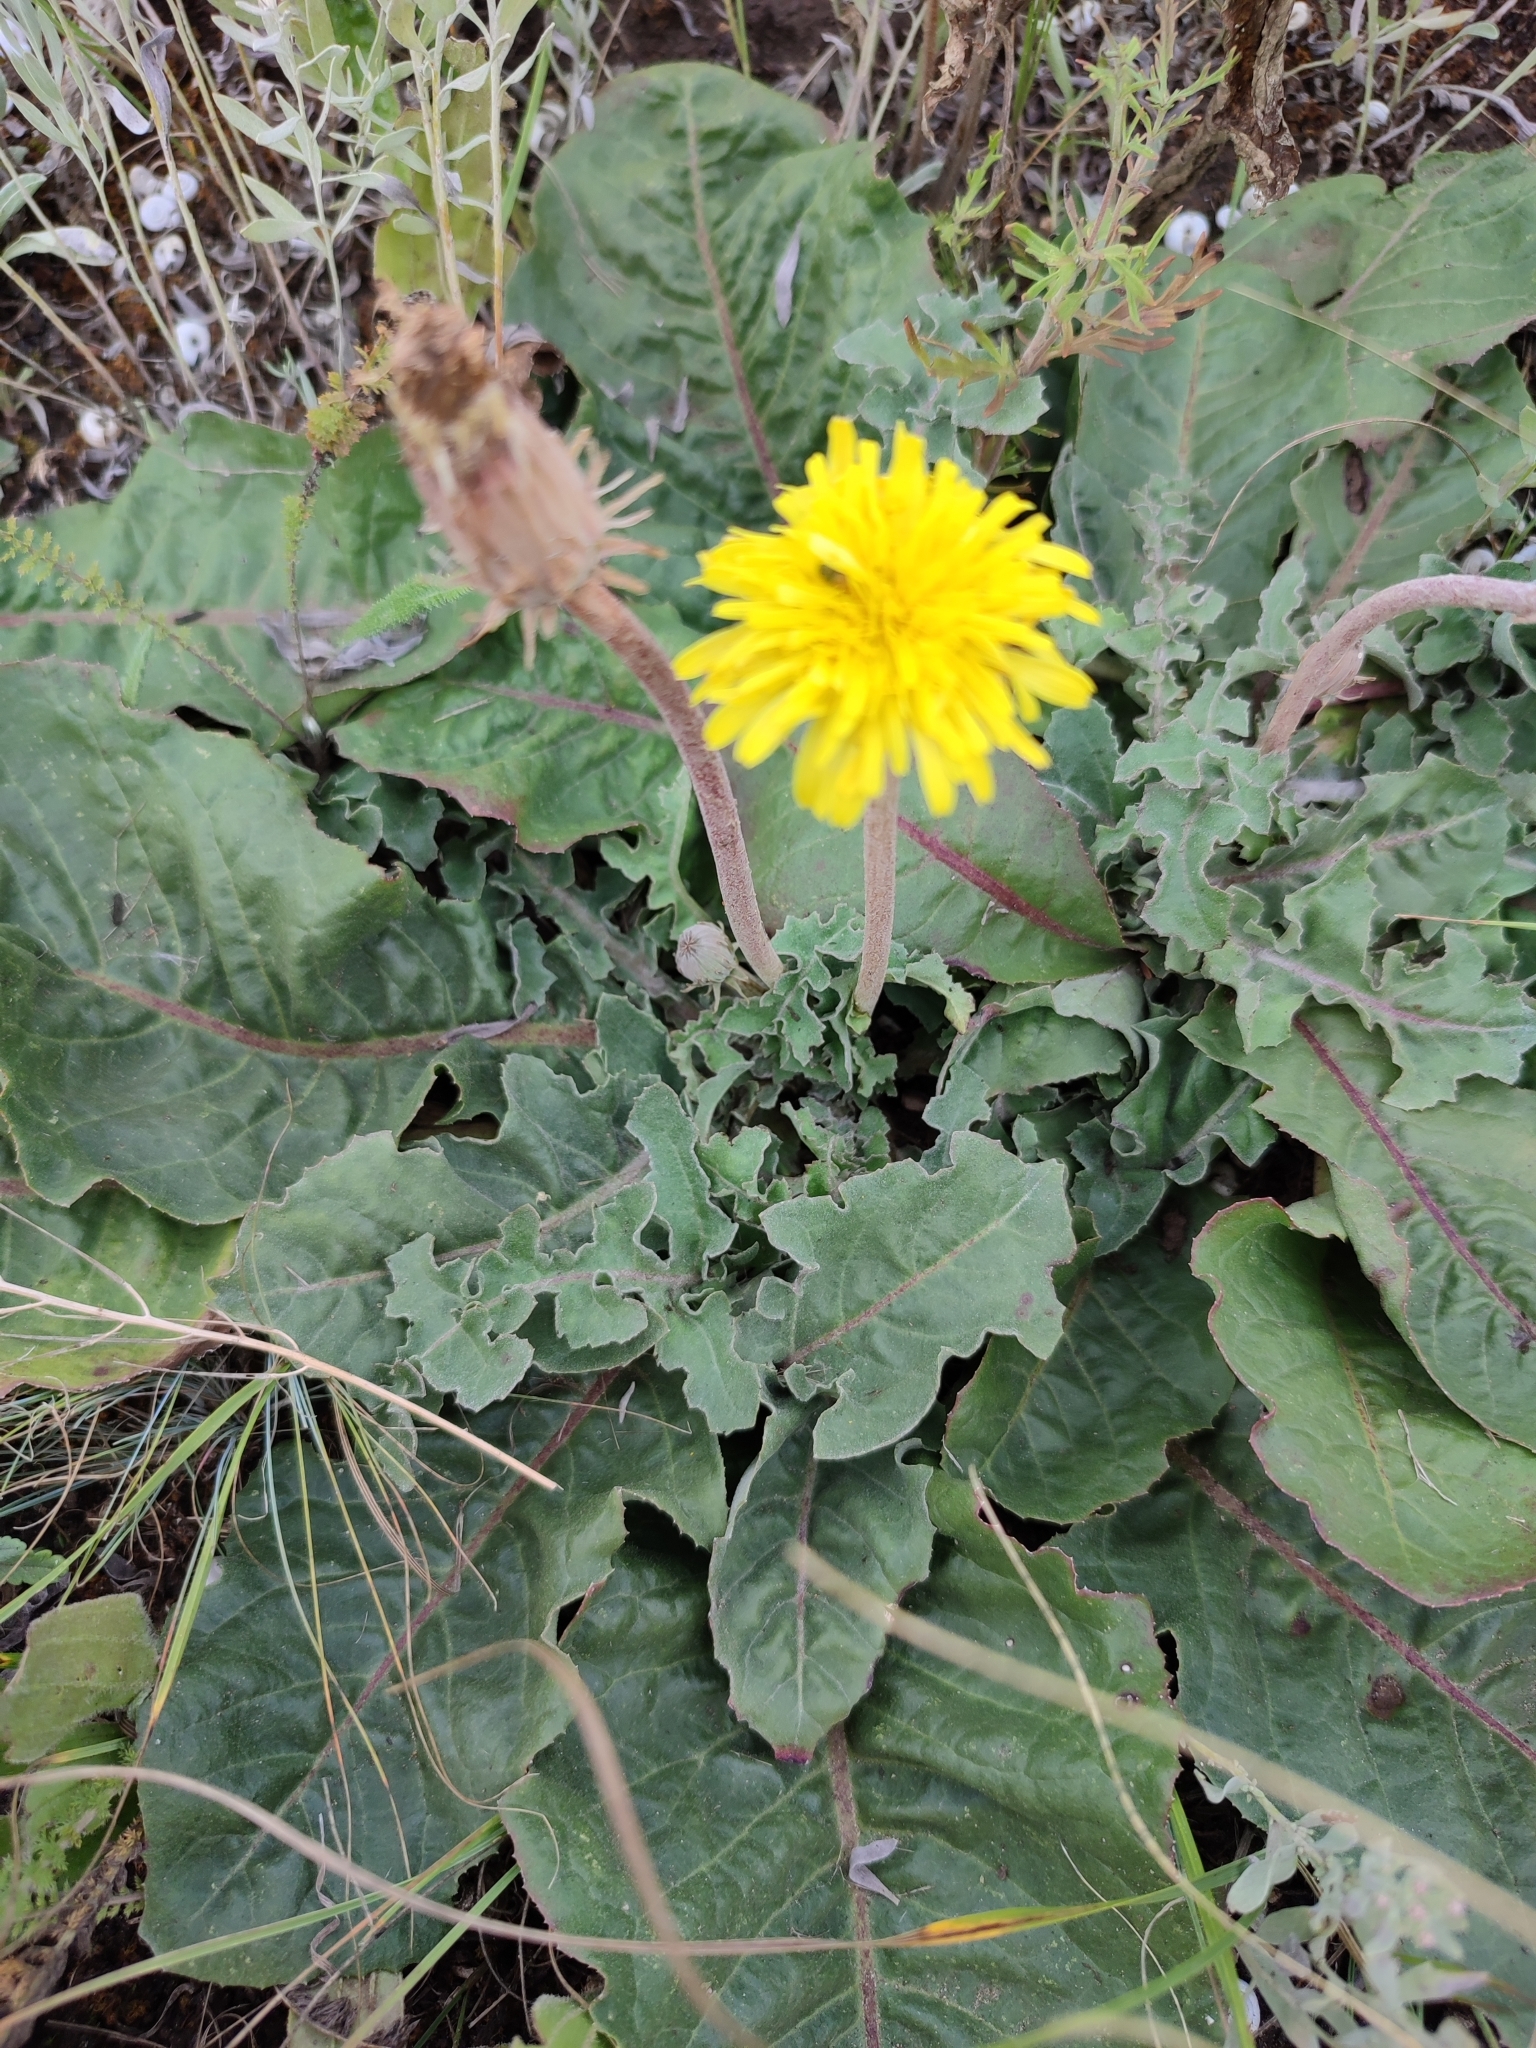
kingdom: Plantae
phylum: Tracheophyta
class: Magnoliopsida
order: Asterales
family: Asteraceae
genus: Taraxacum
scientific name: Taraxacum serotinum
